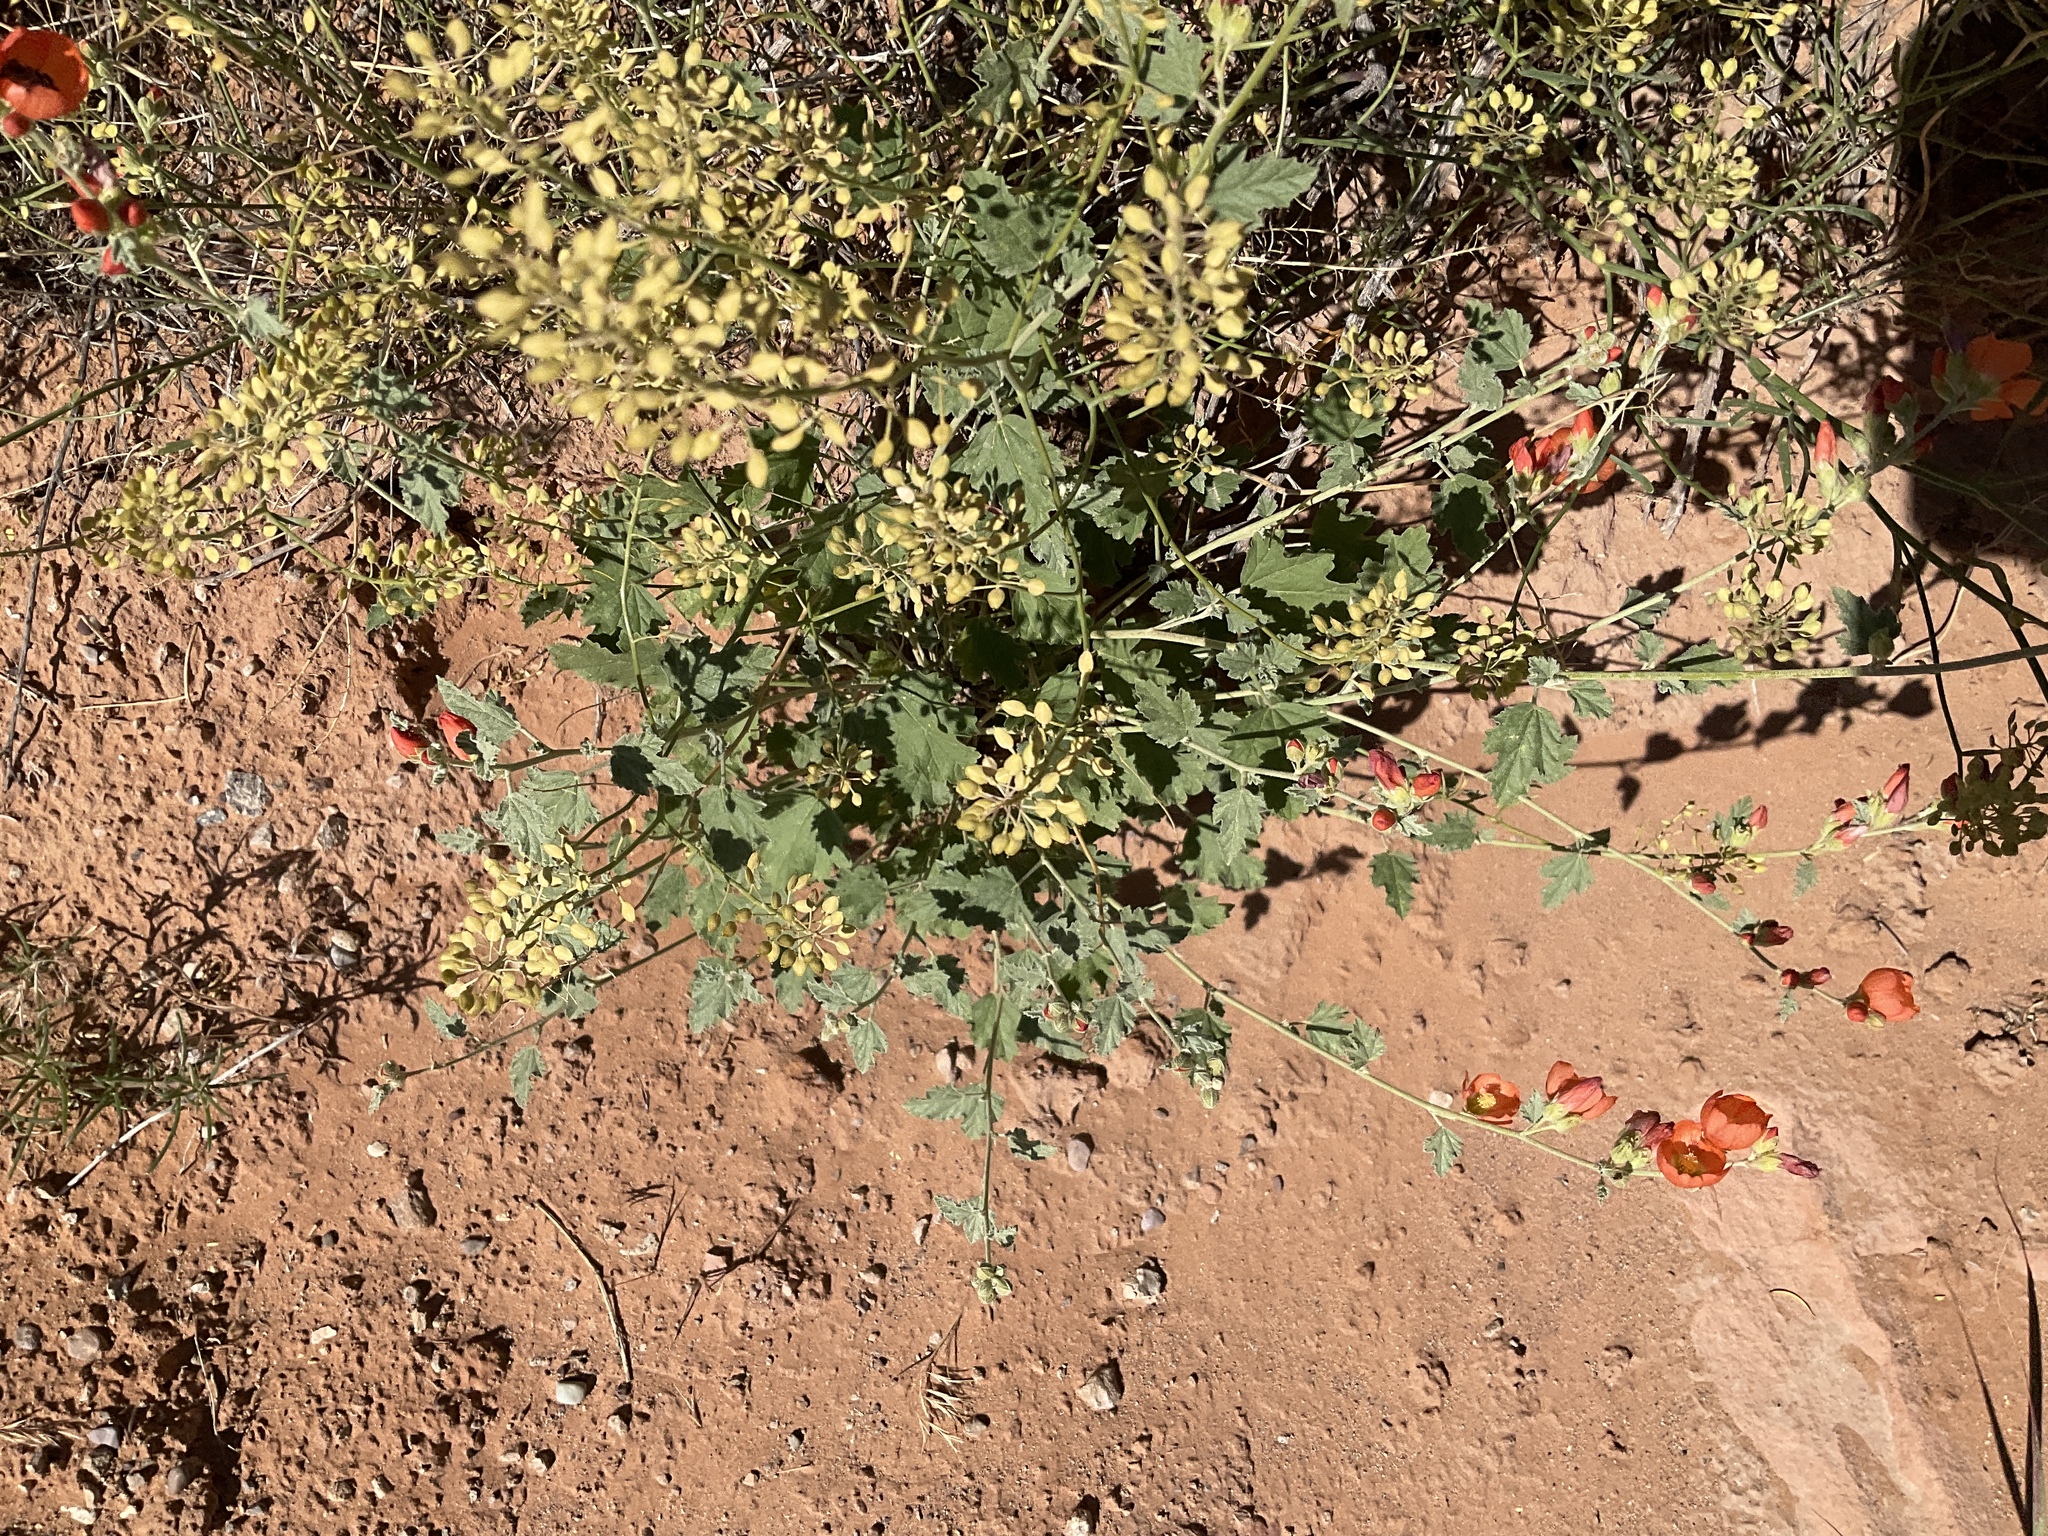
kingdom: Plantae
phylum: Tracheophyta
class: Magnoliopsida
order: Malvales
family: Malvaceae
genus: Sphaeralcea
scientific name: Sphaeralcea parvifolia
